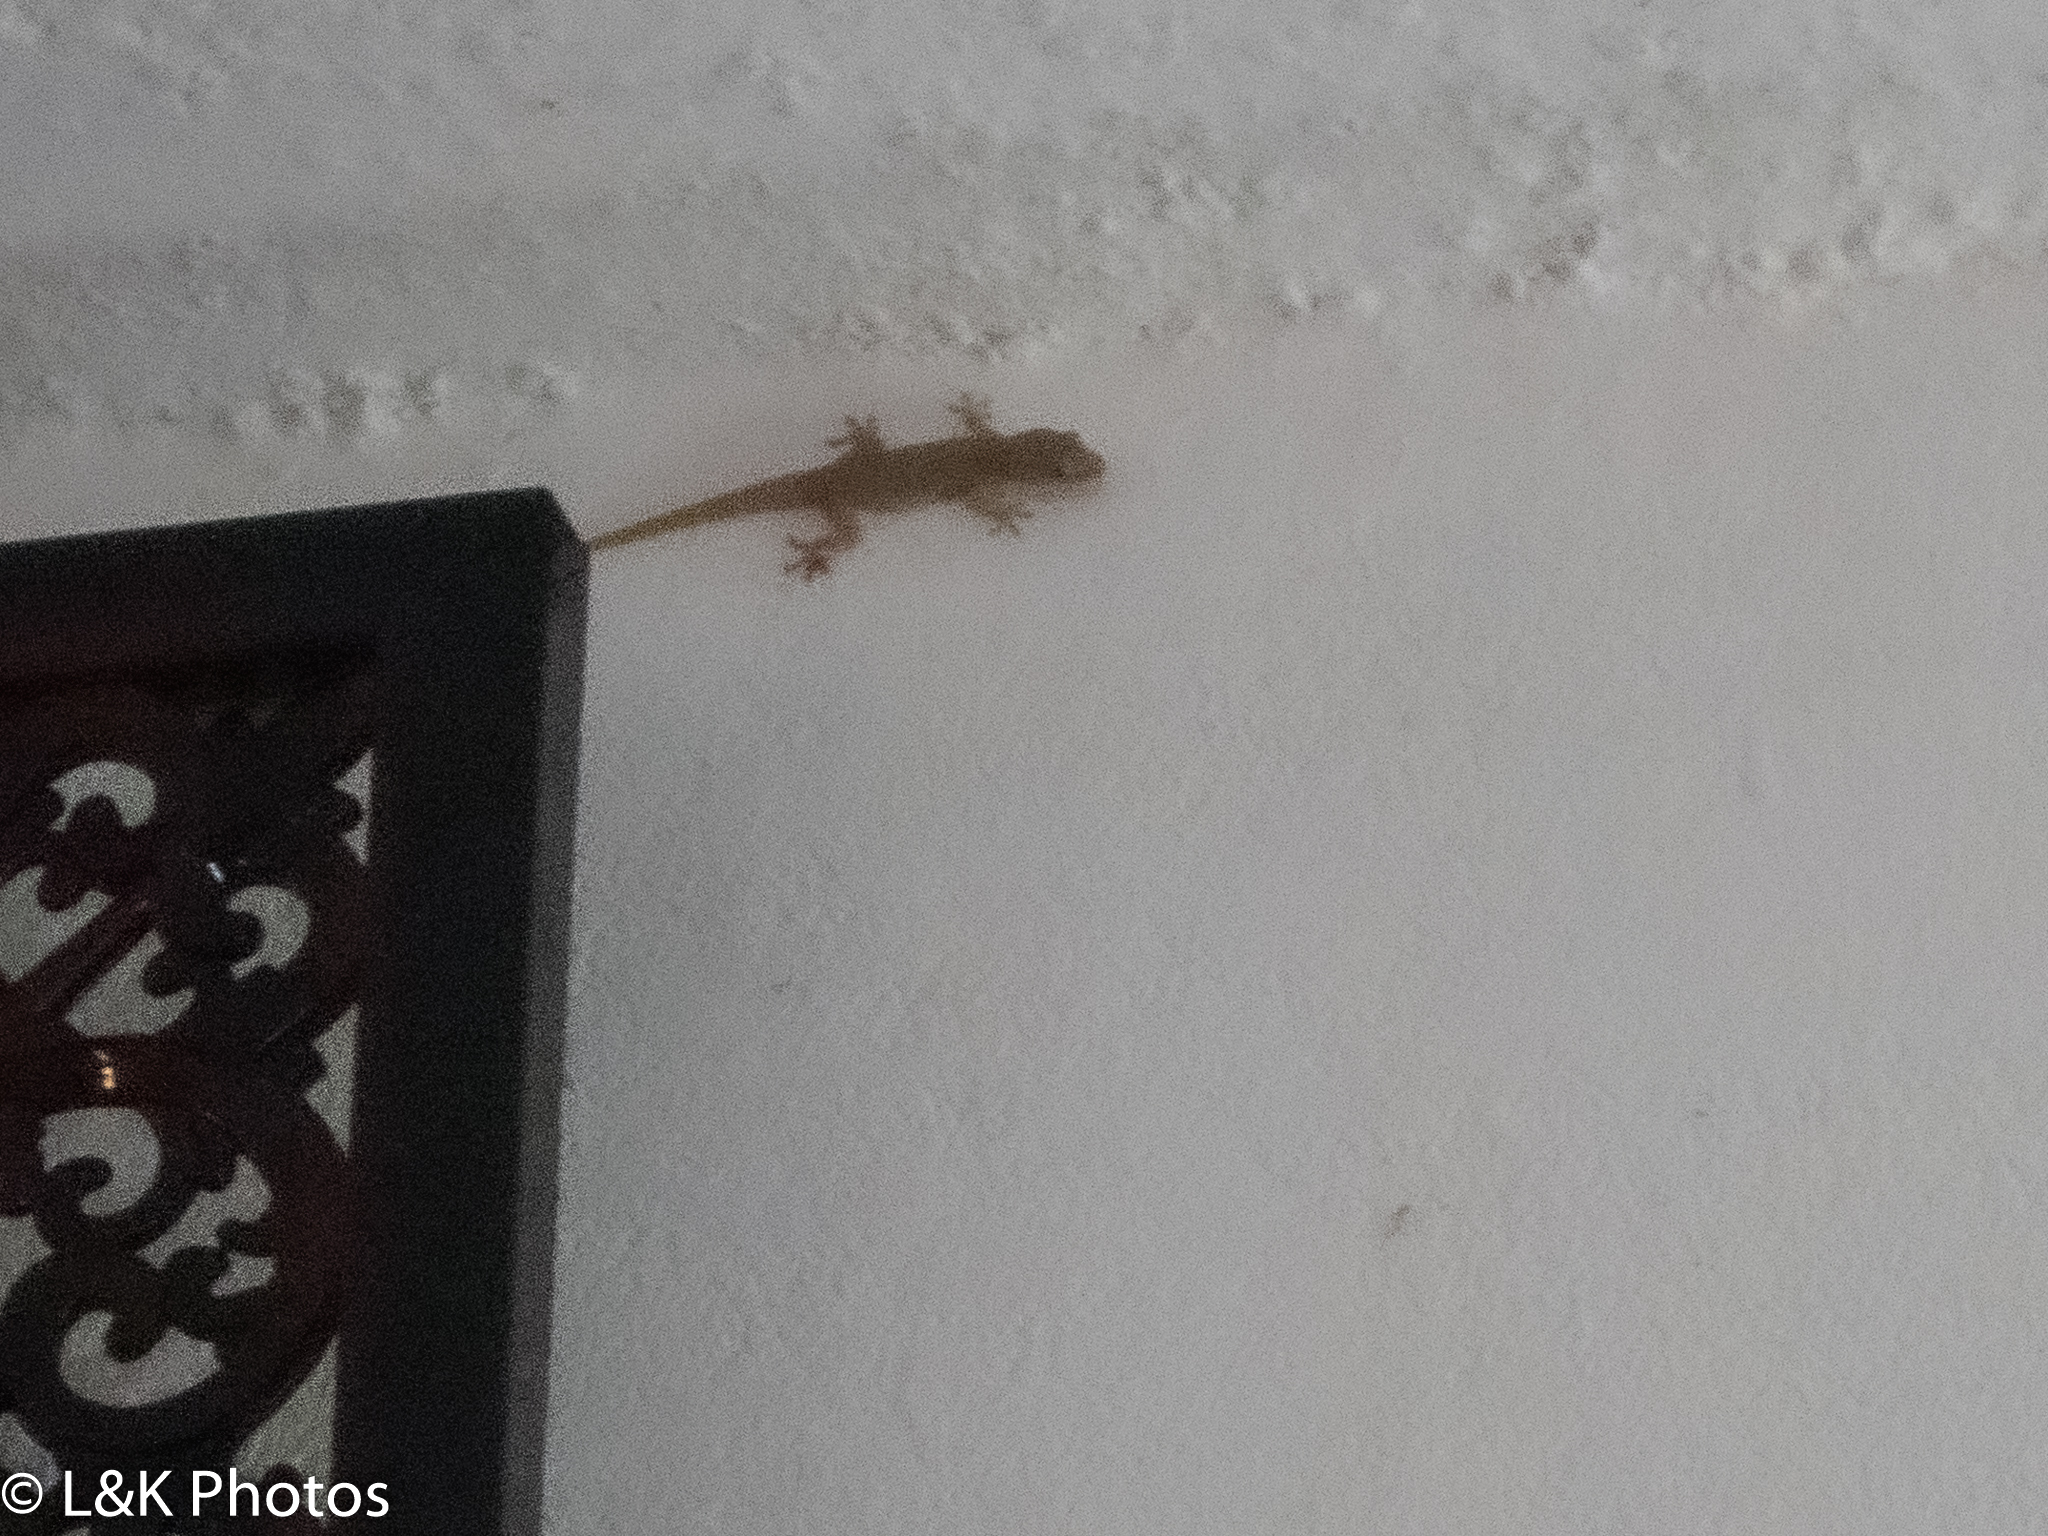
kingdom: Animalia
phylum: Chordata
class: Squamata
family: Gekkonidae
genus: Hemidactylus
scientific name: Hemidactylus frenatus
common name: Common house gecko
